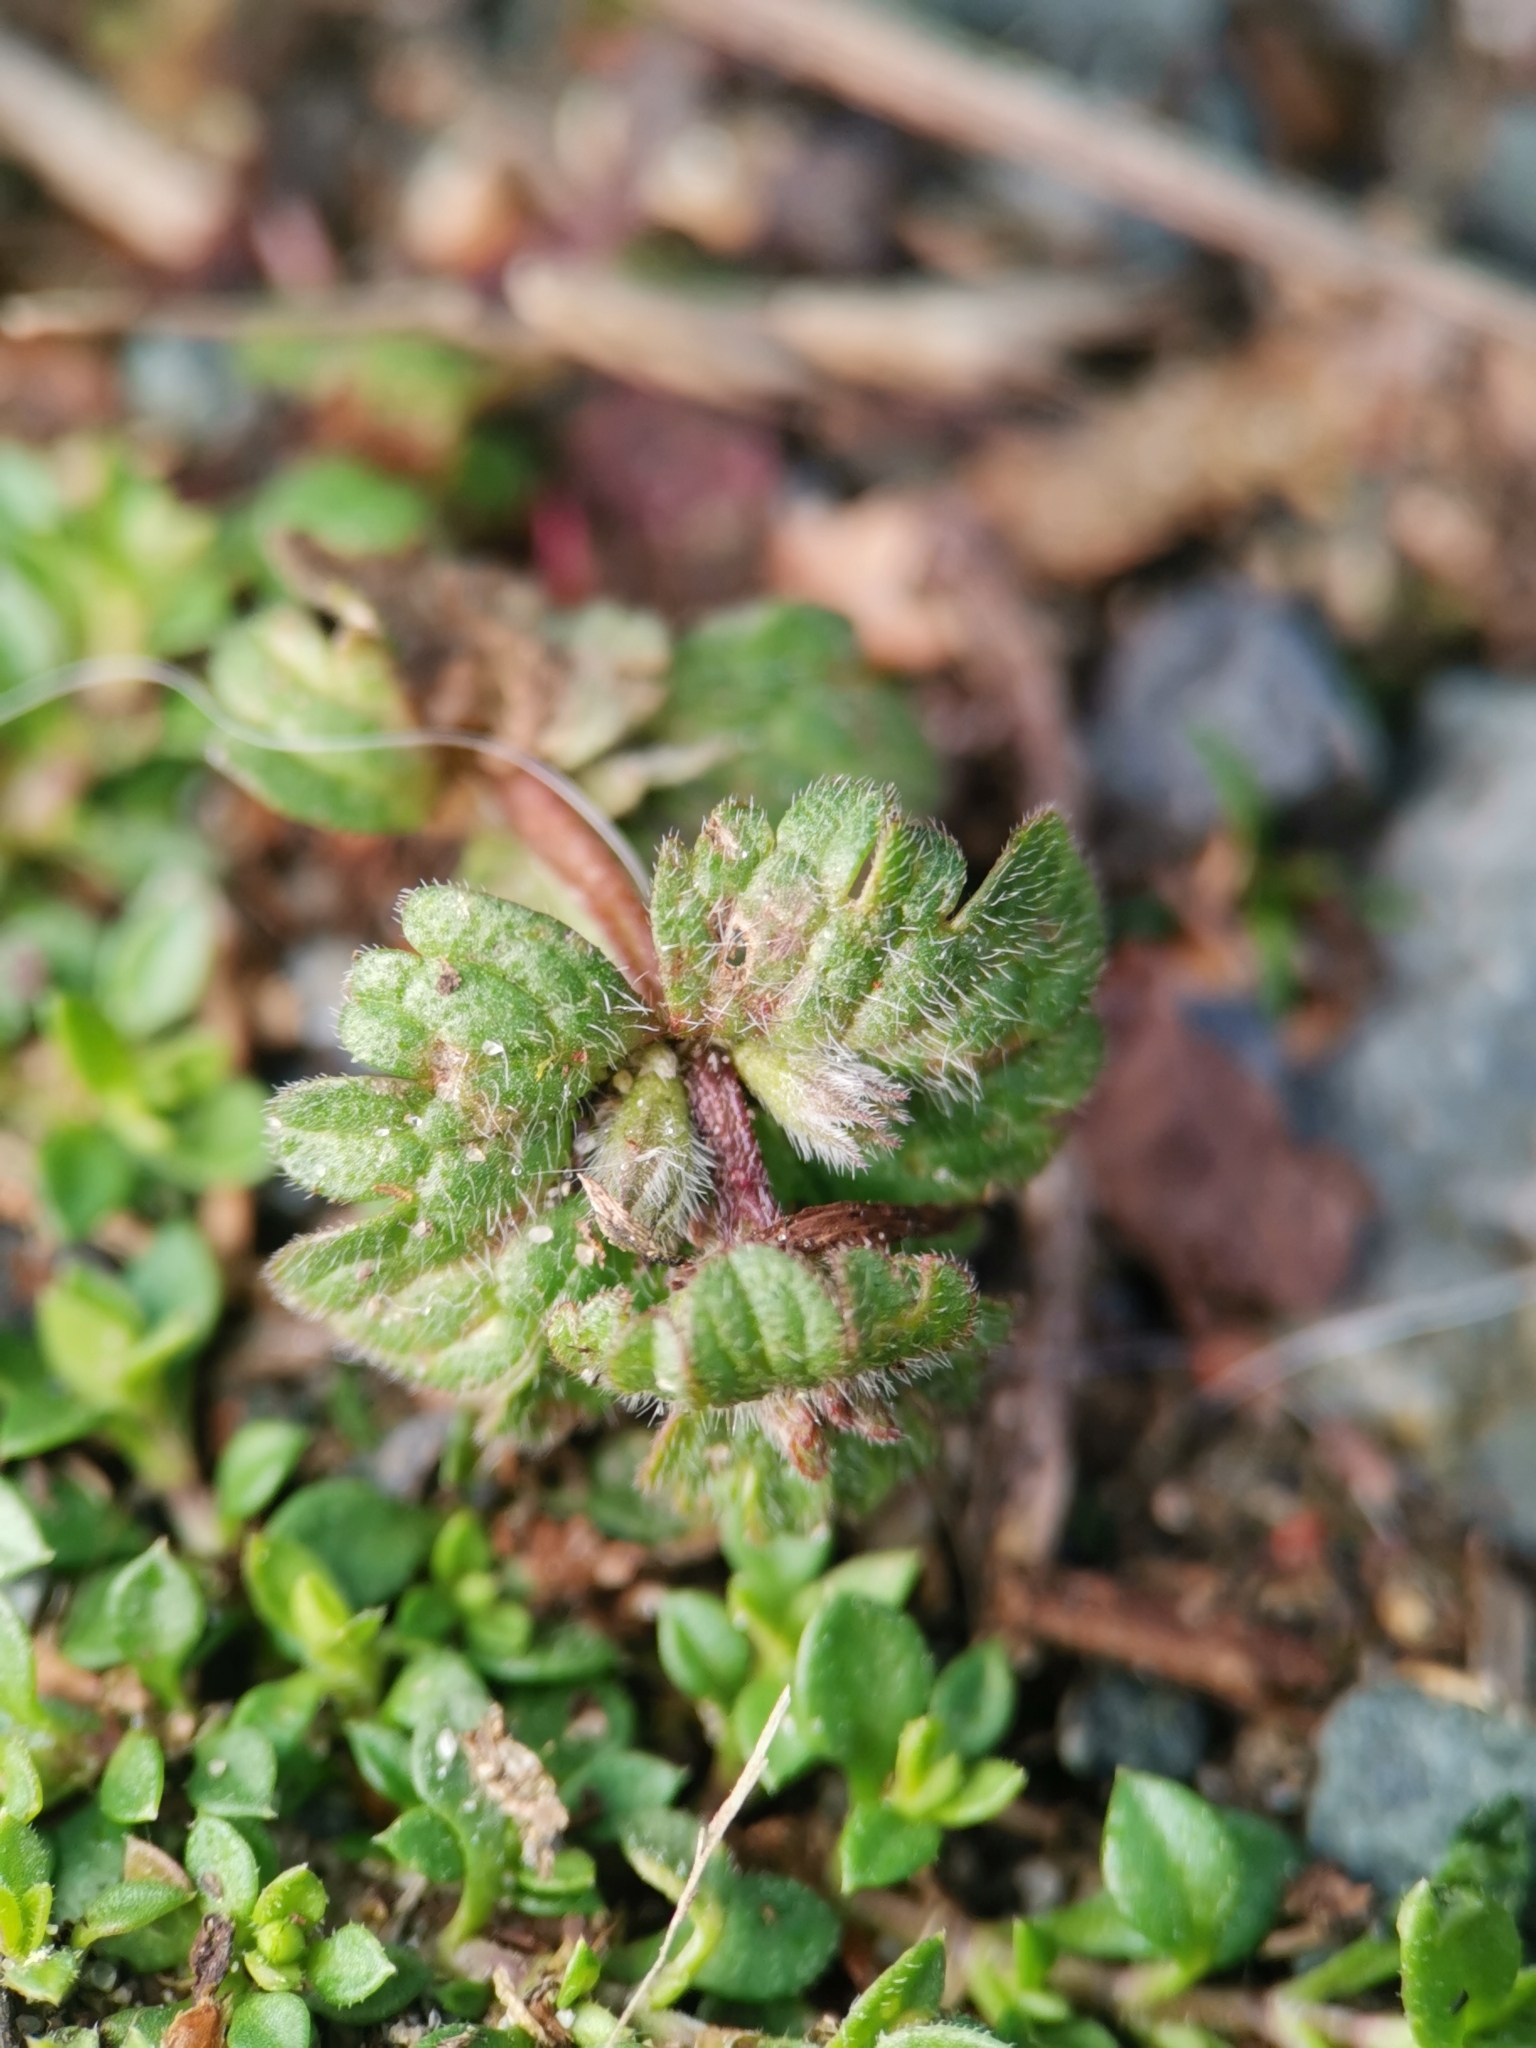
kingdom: Plantae
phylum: Tracheophyta
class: Magnoliopsida
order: Lamiales
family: Lamiaceae
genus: Lamium
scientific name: Lamium amplexicaule
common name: Henbit dead-nettle
